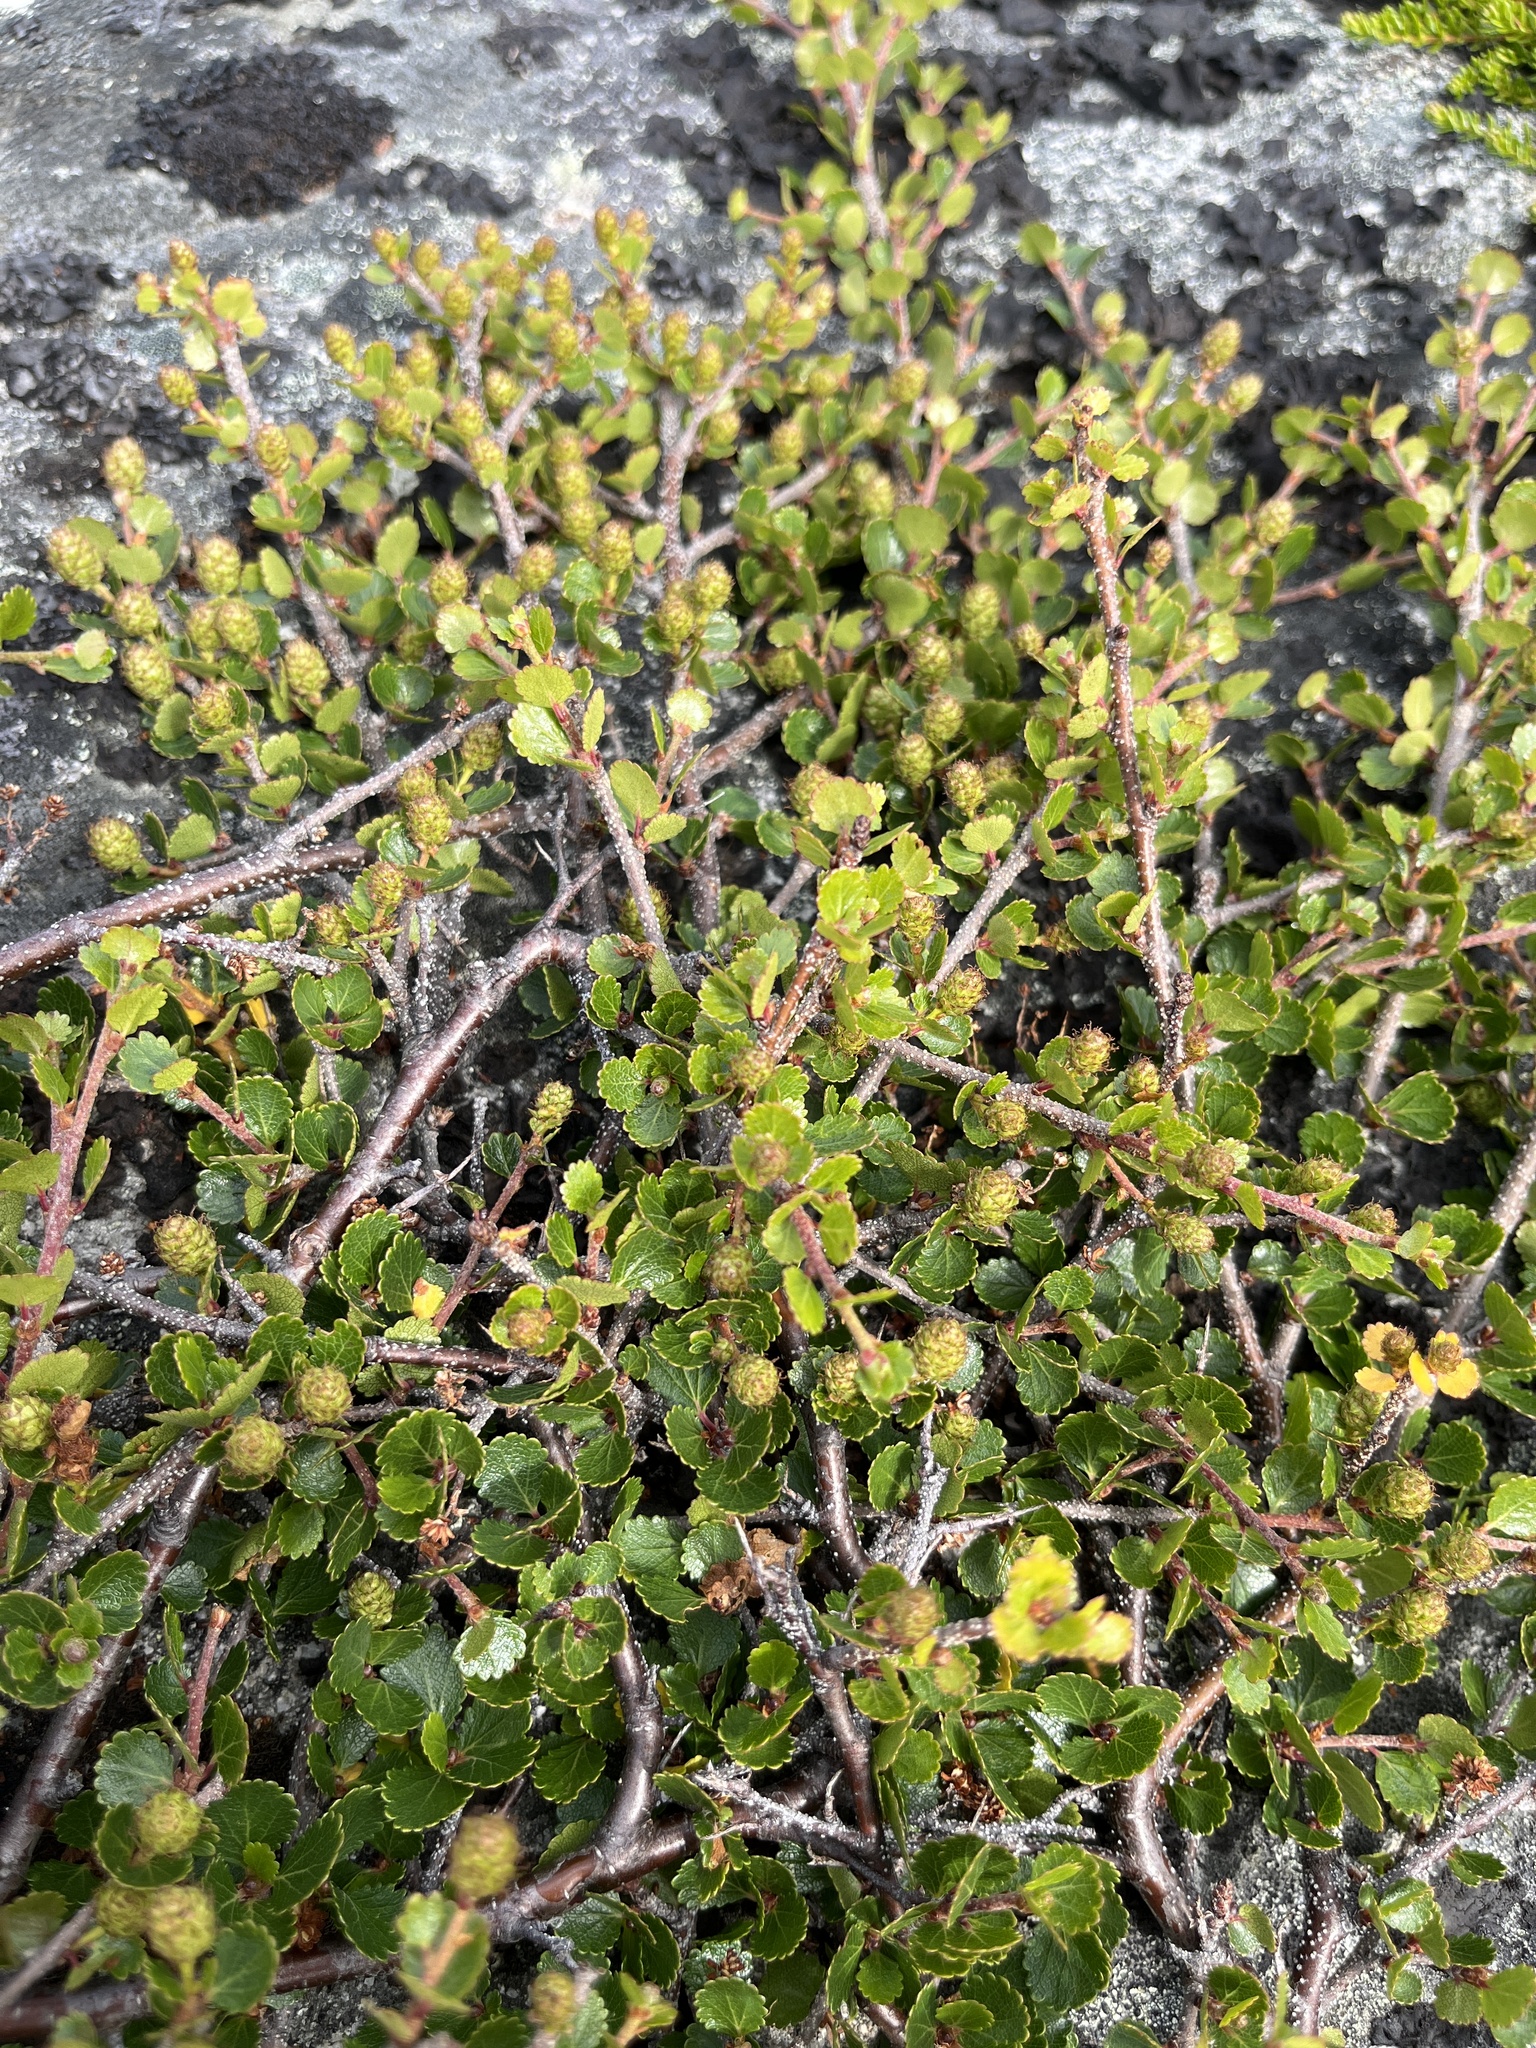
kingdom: Plantae
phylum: Tracheophyta
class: Magnoliopsida
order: Fagales
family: Betulaceae
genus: Betula
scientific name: Betula glandulosa
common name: Dwarf birch
